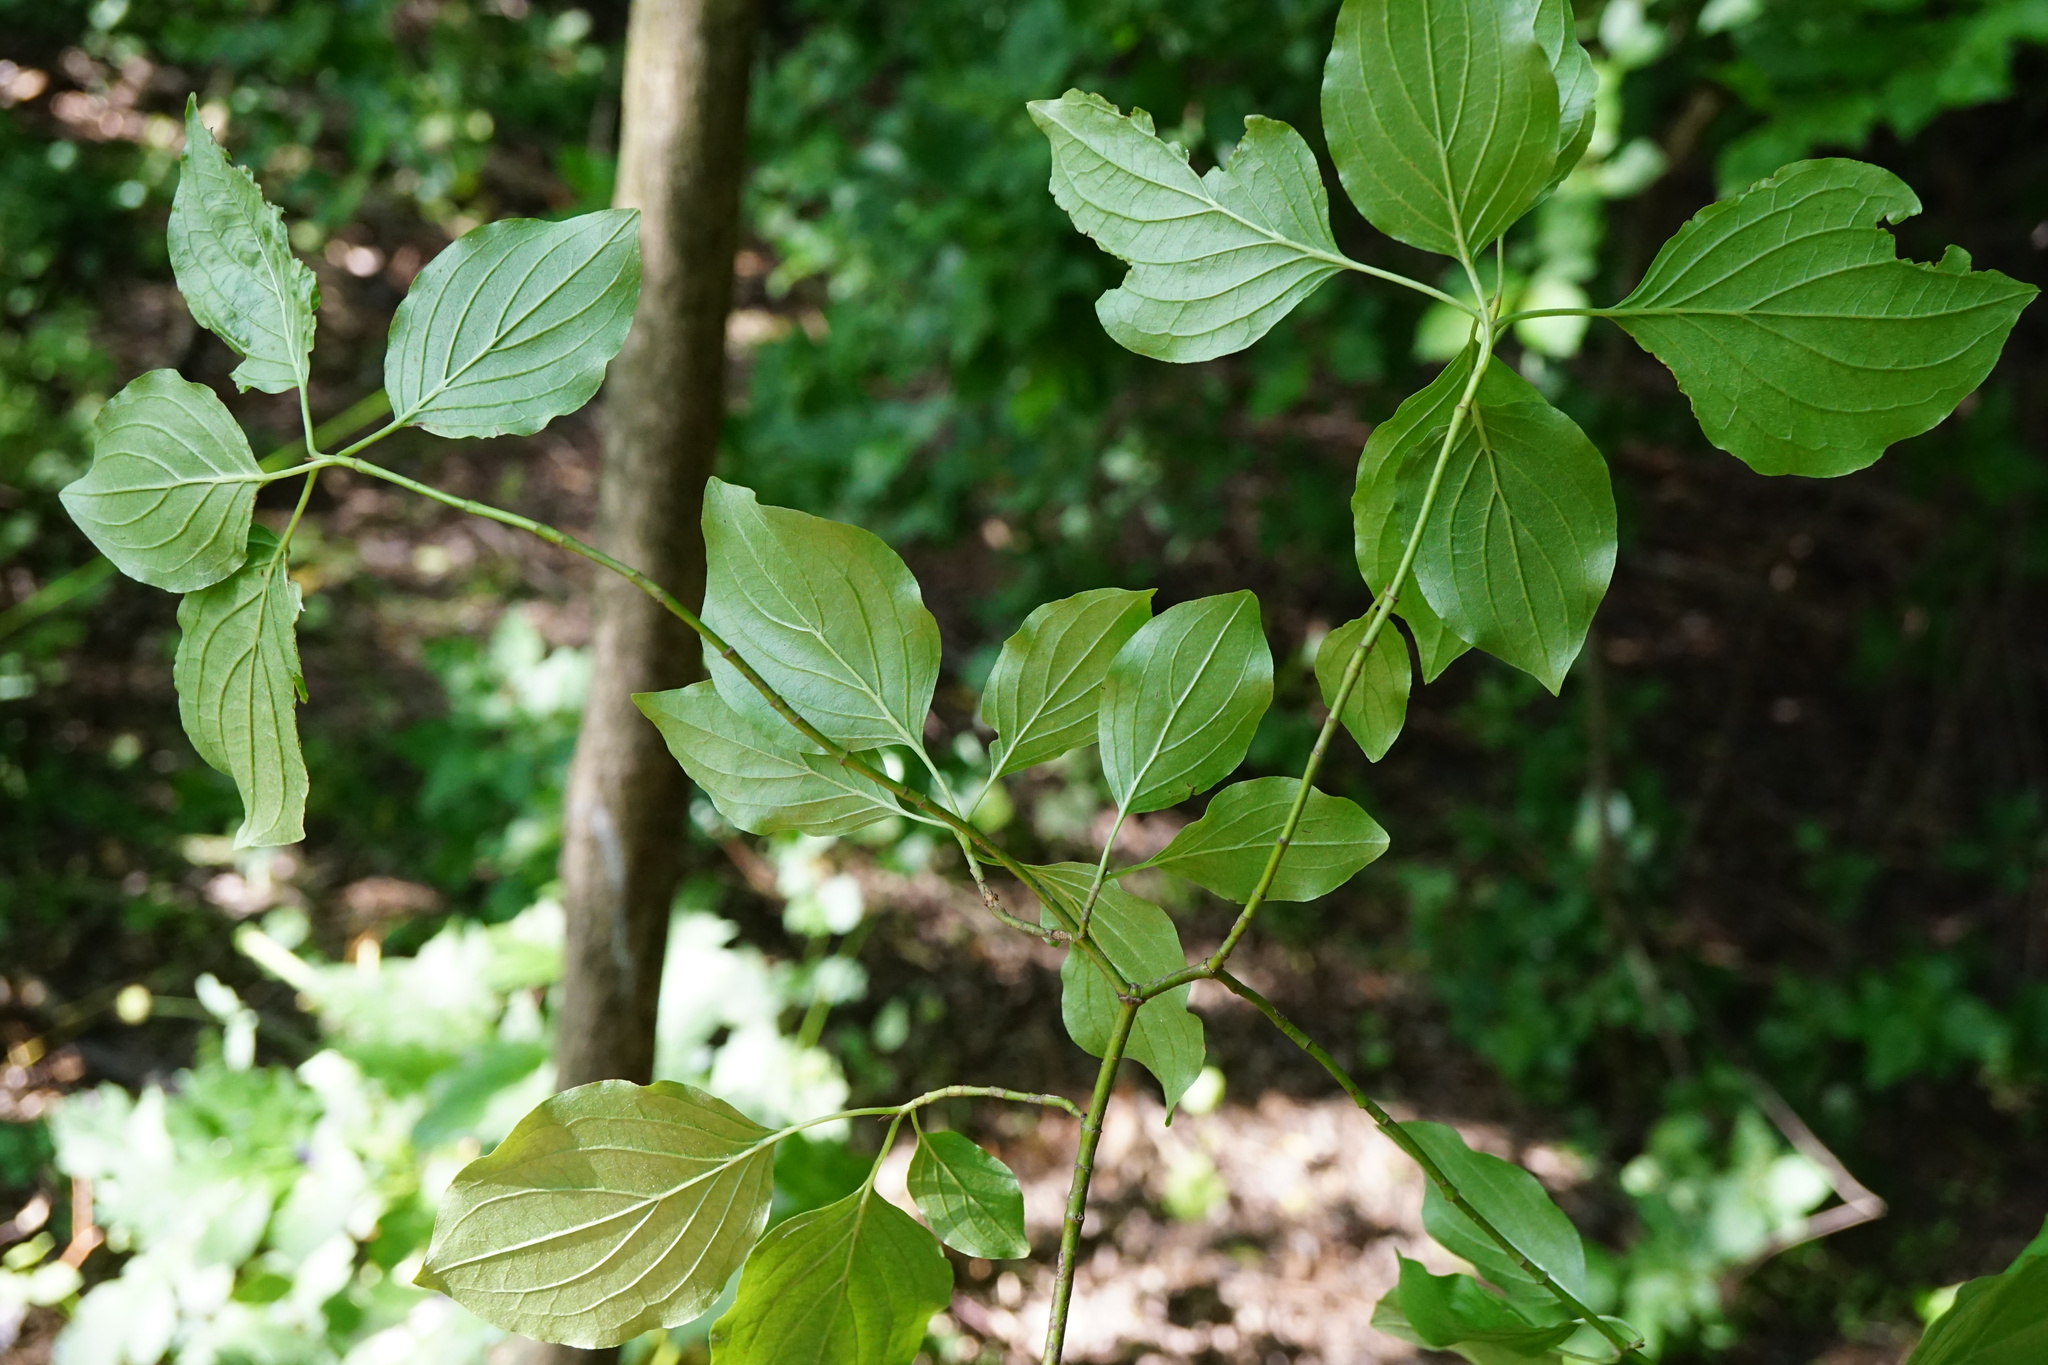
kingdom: Plantae
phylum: Tracheophyta
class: Magnoliopsida
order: Cornales
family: Cornaceae
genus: Cornus
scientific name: Cornus sanguinea
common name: Dogwood
